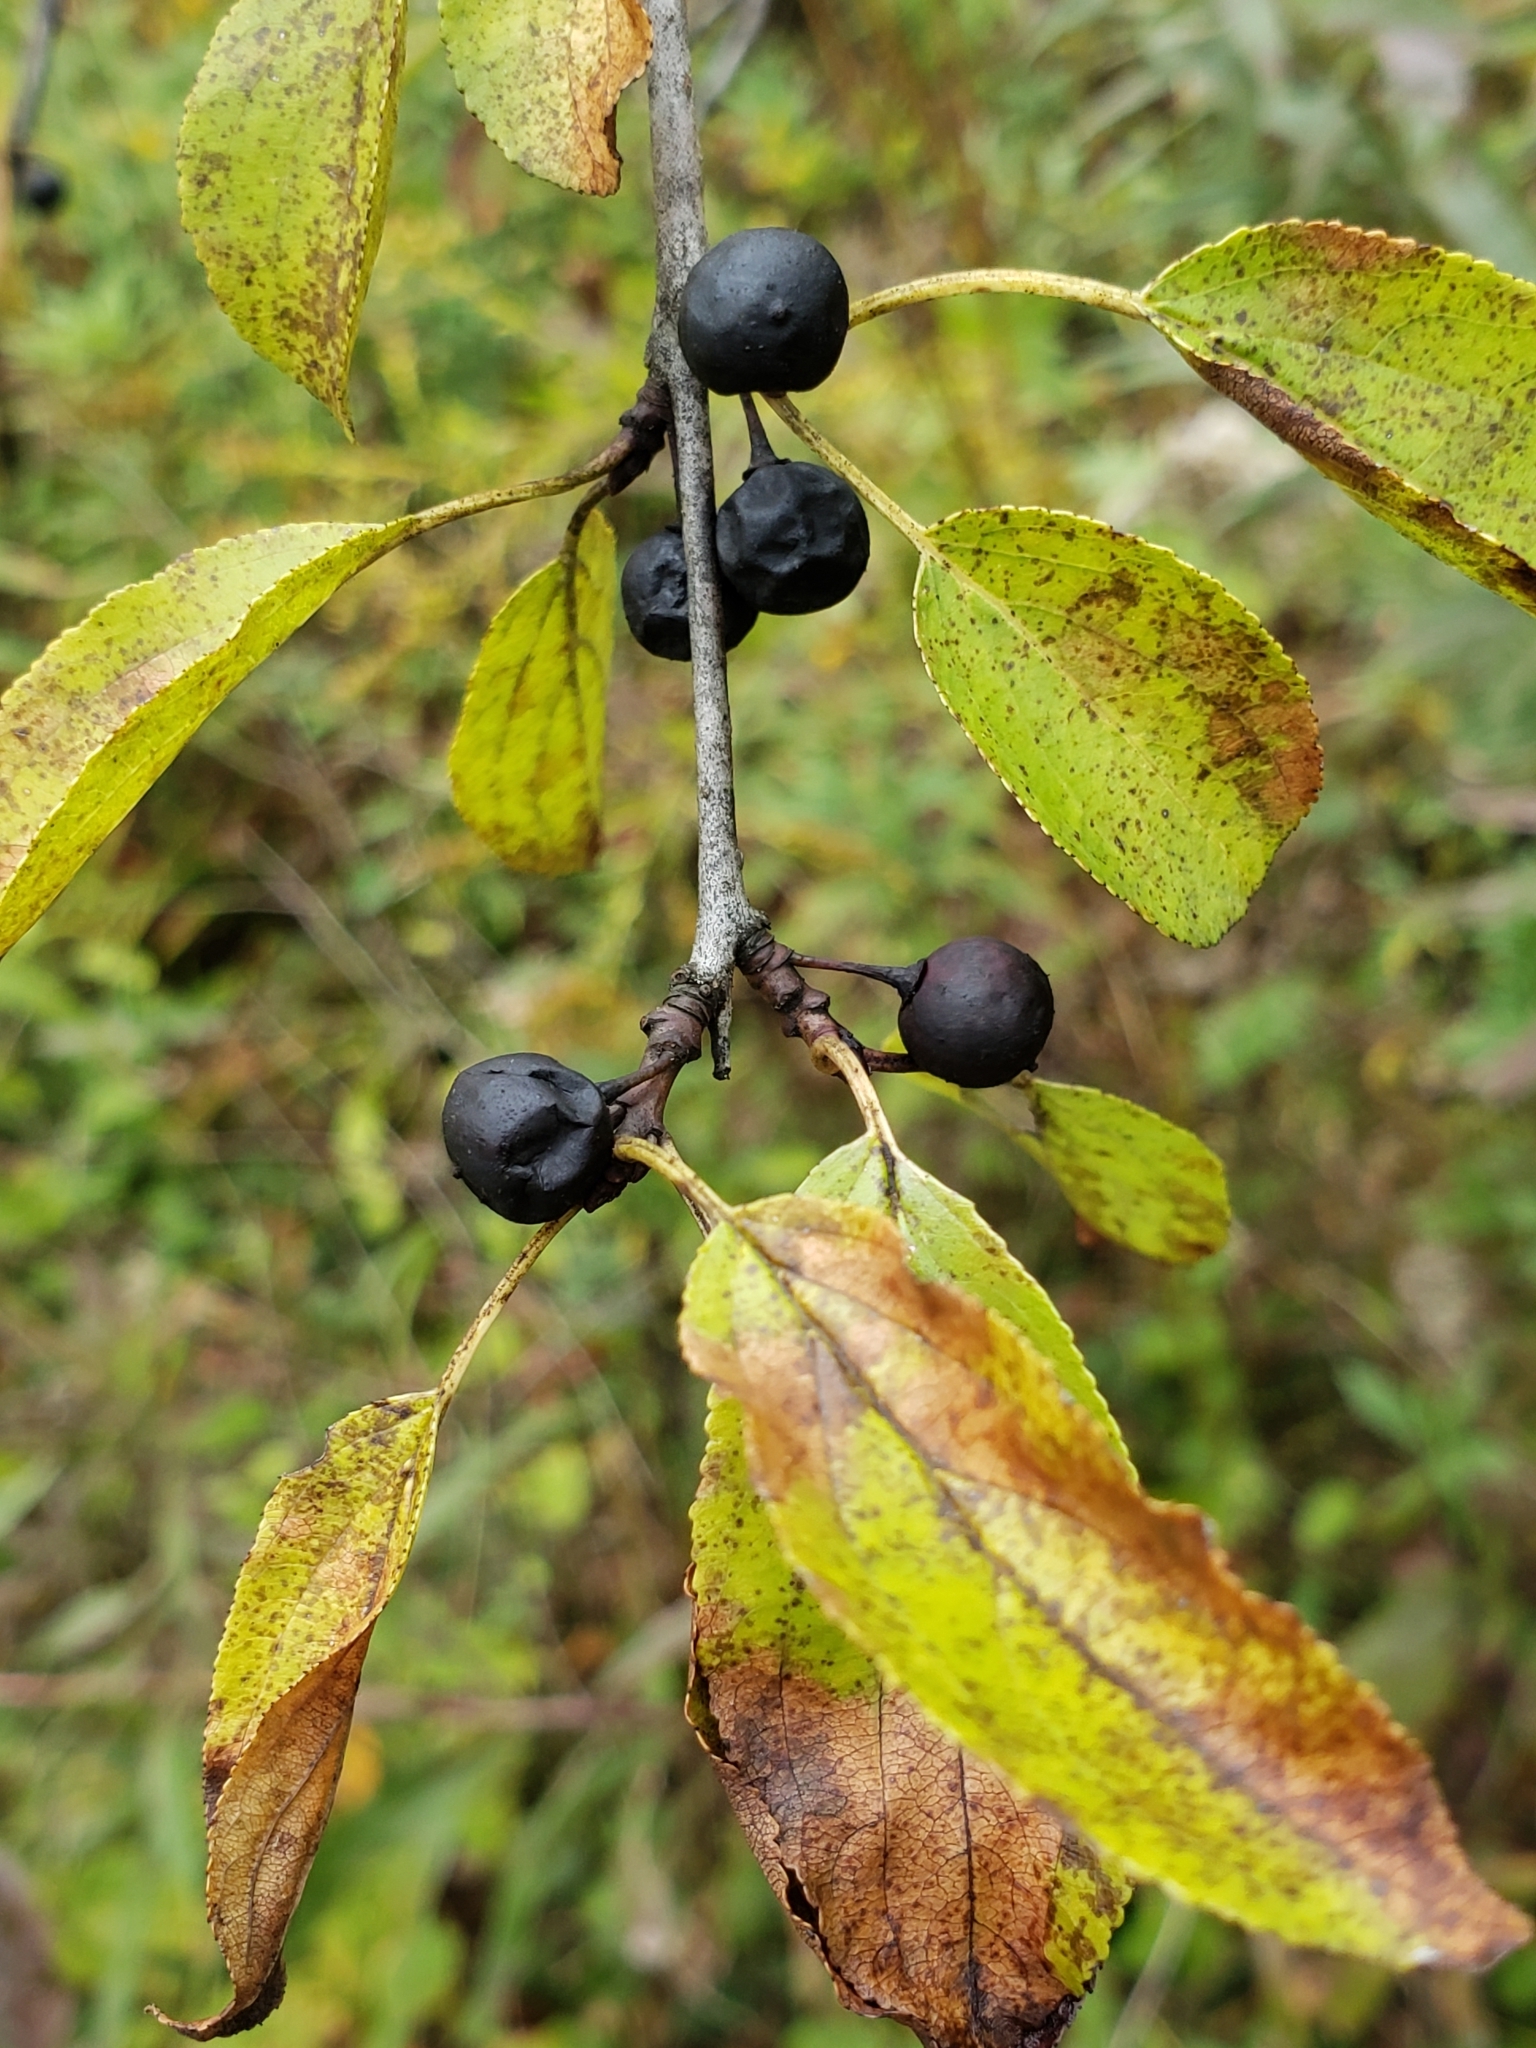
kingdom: Plantae
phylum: Tracheophyta
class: Magnoliopsida
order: Rosales
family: Rhamnaceae
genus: Rhamnus
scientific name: Rhamnus cathartica
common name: Common buckthorn
